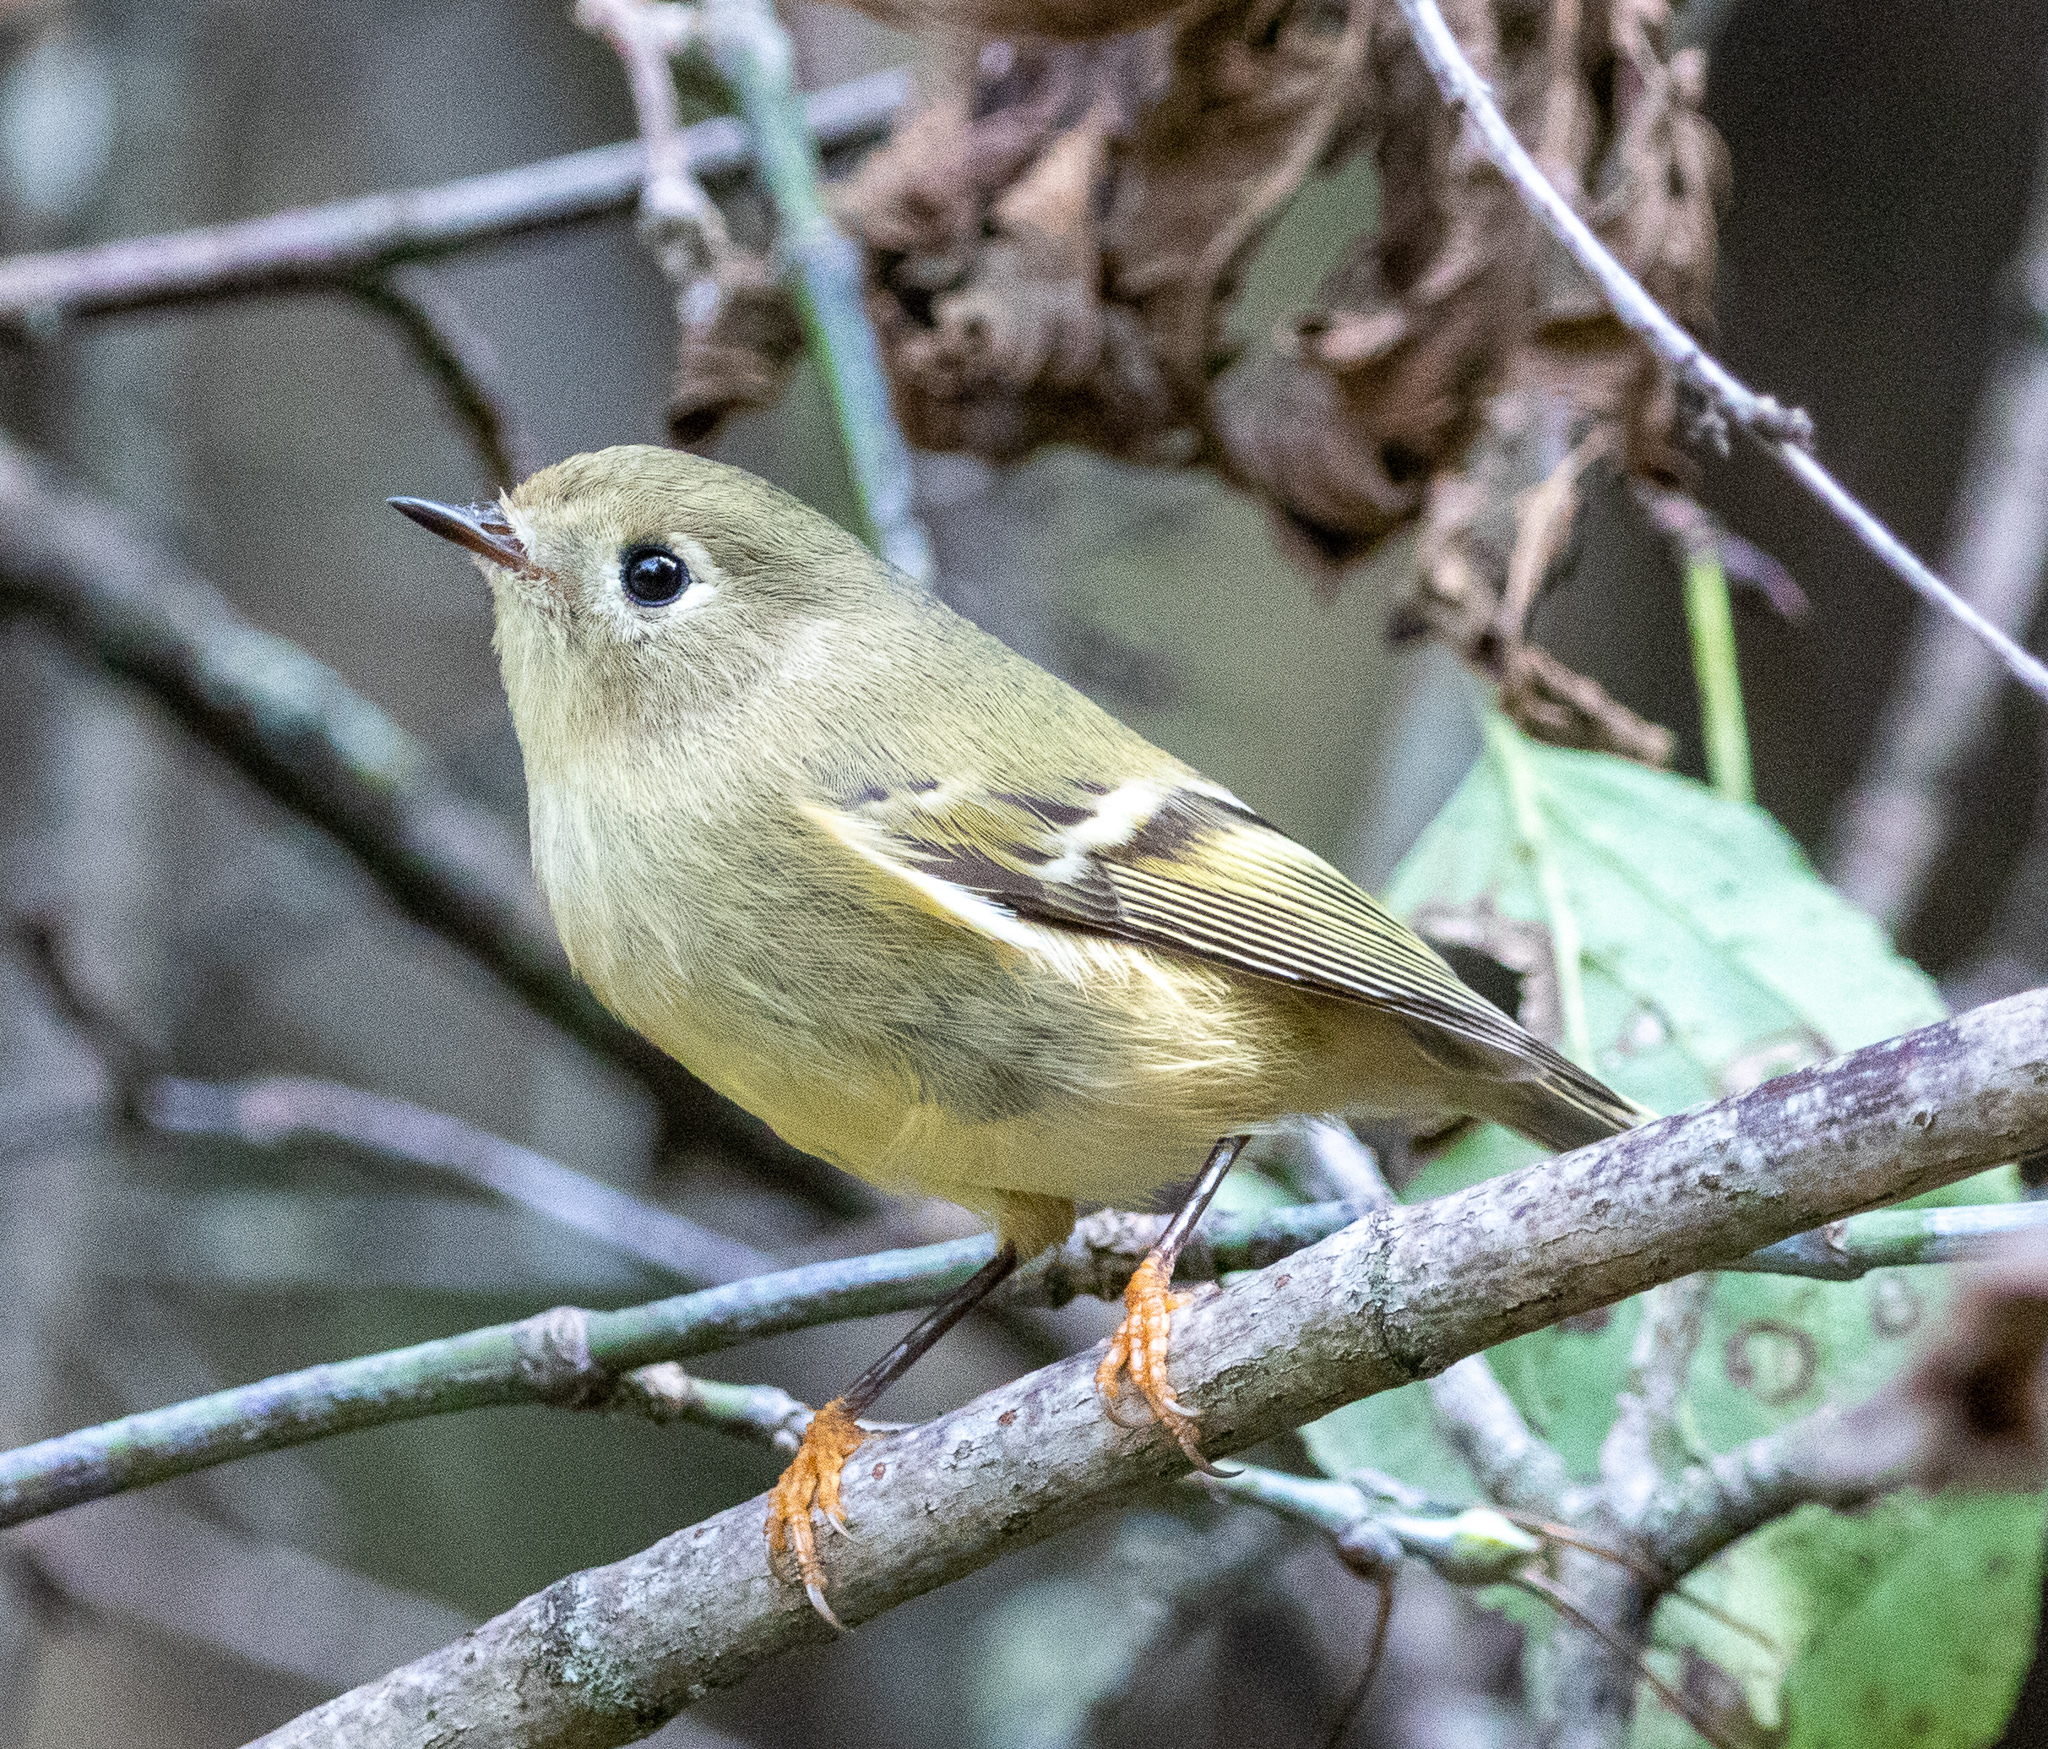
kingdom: Animalia
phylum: Chordata
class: Aves
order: Passeriformes
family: Regulidae
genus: Regulus
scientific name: Regulus calendula
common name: Ruby-crowned kinglet
